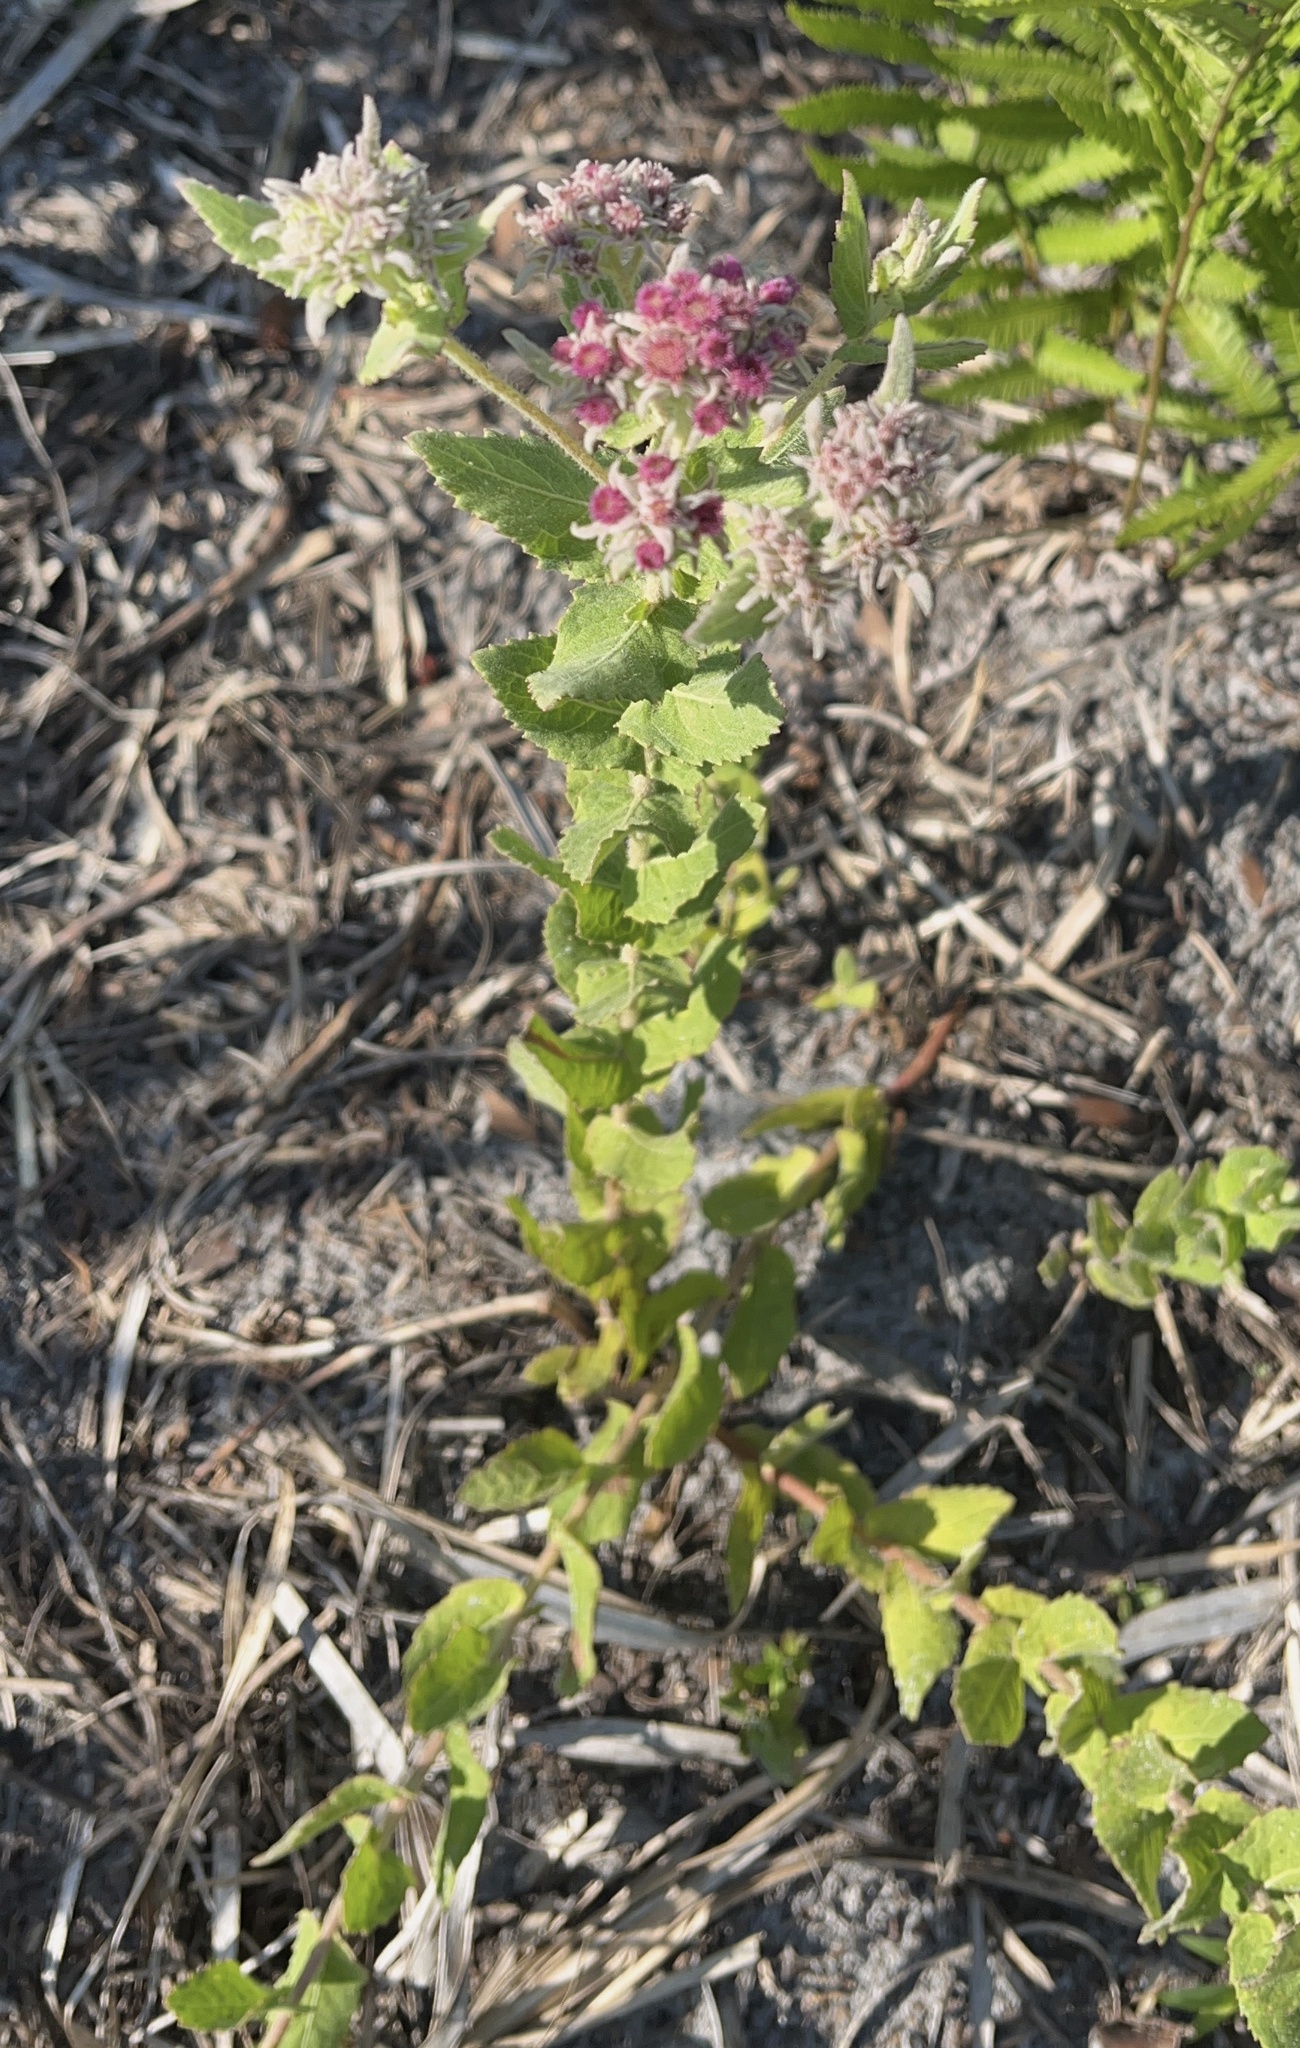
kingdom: Plantae
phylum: Tracheophyta
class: Magnoliopsida
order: Asterales
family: Asteraceae
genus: Pluchea
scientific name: Pluchea baccharis
